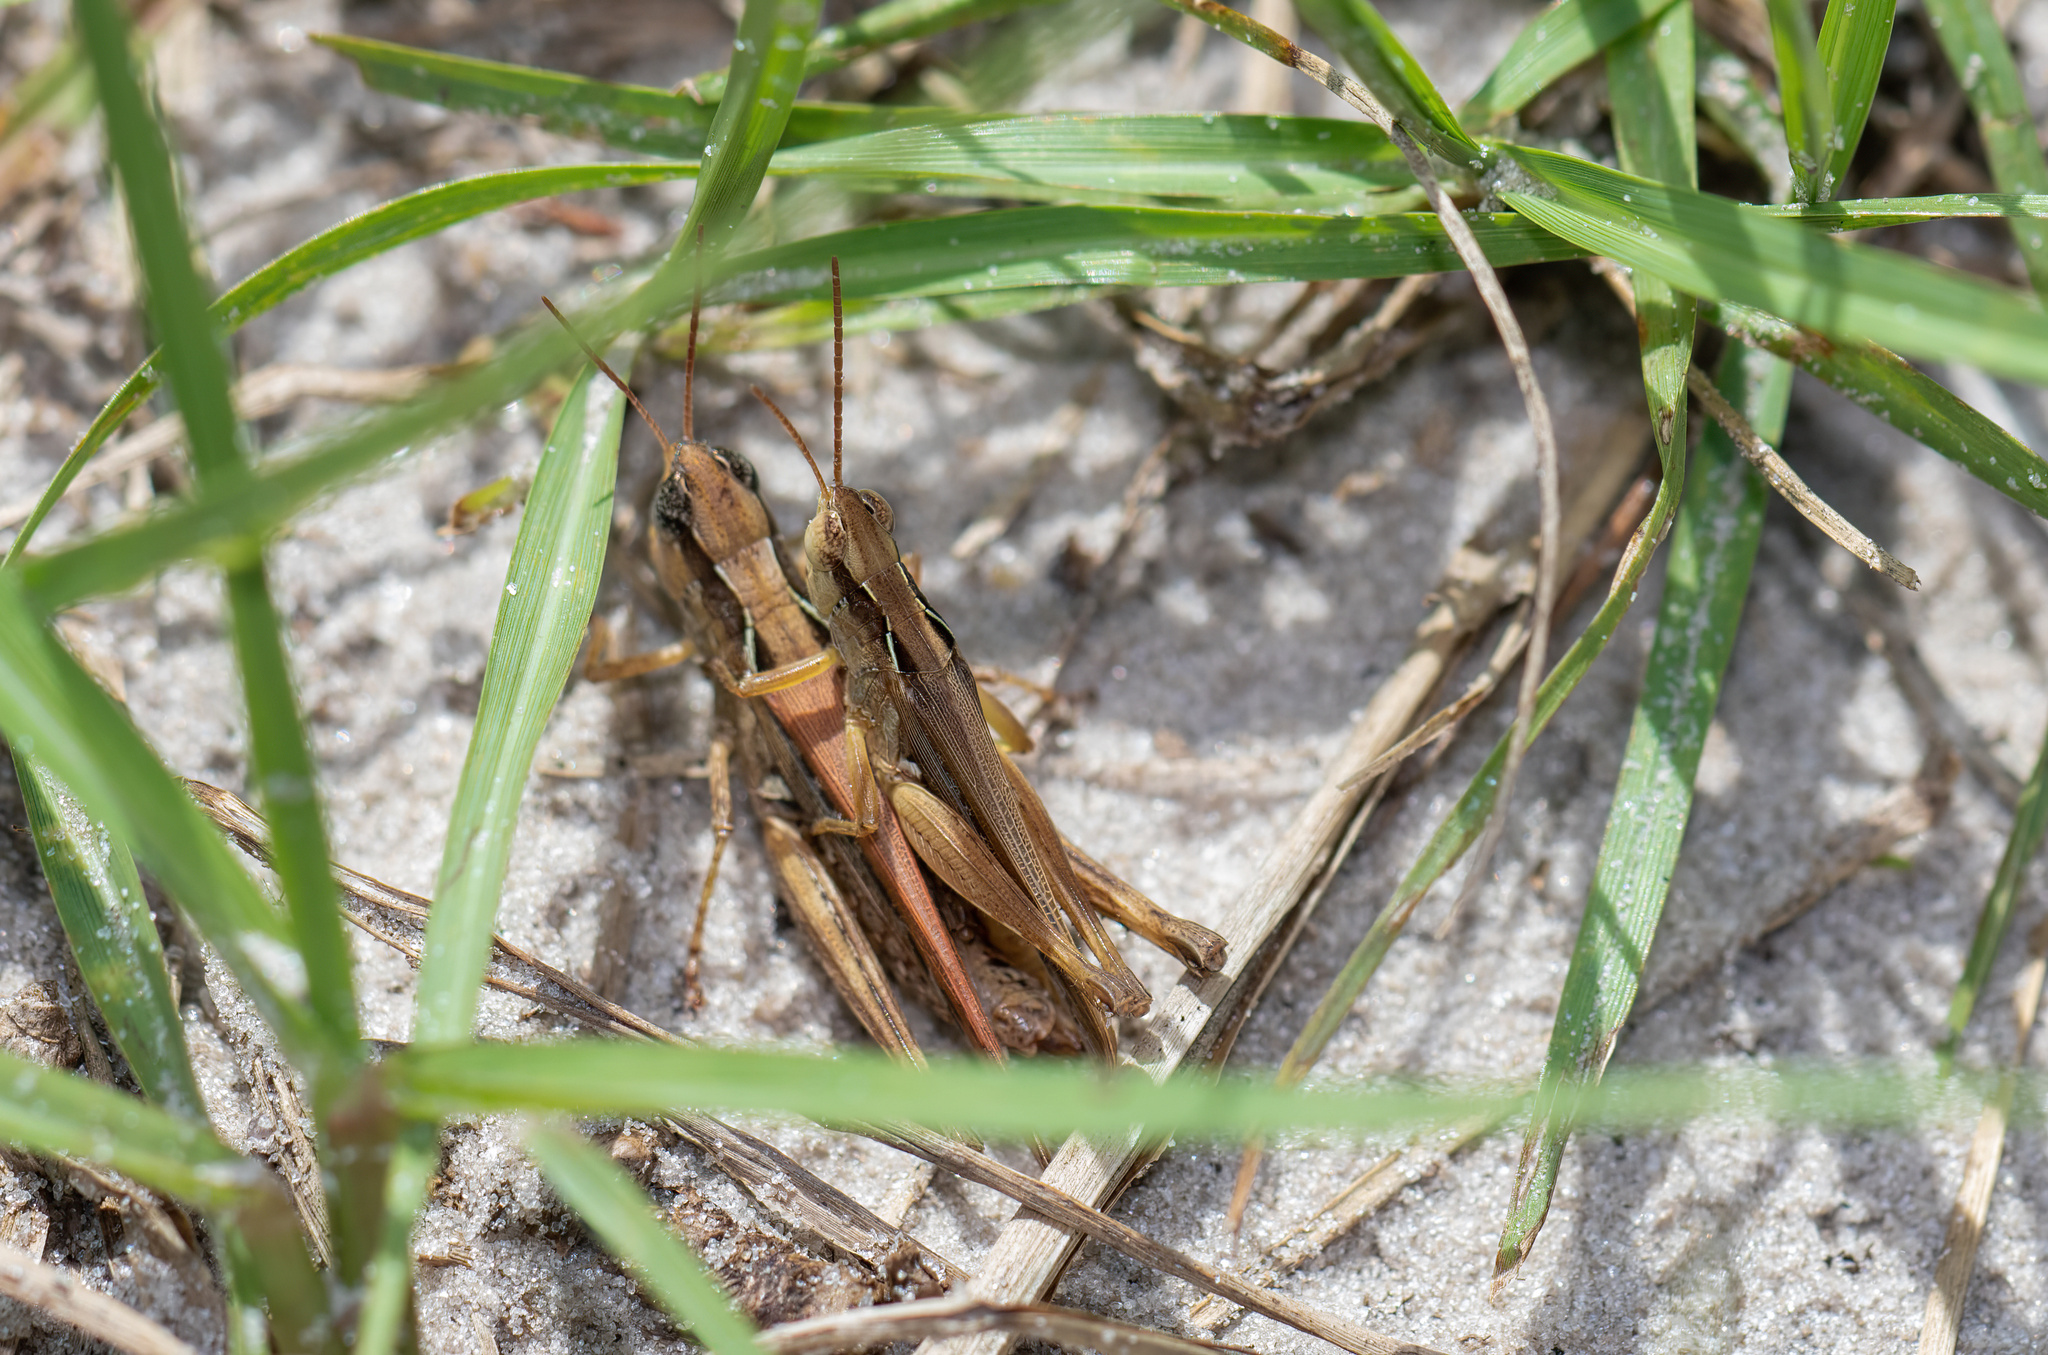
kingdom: Animalia
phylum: Arthropoda
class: Insecta
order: Orthoptera
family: Acrididae
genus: Orphulella
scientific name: Orphulella pelidna
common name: Spotted-wing grasshopper
